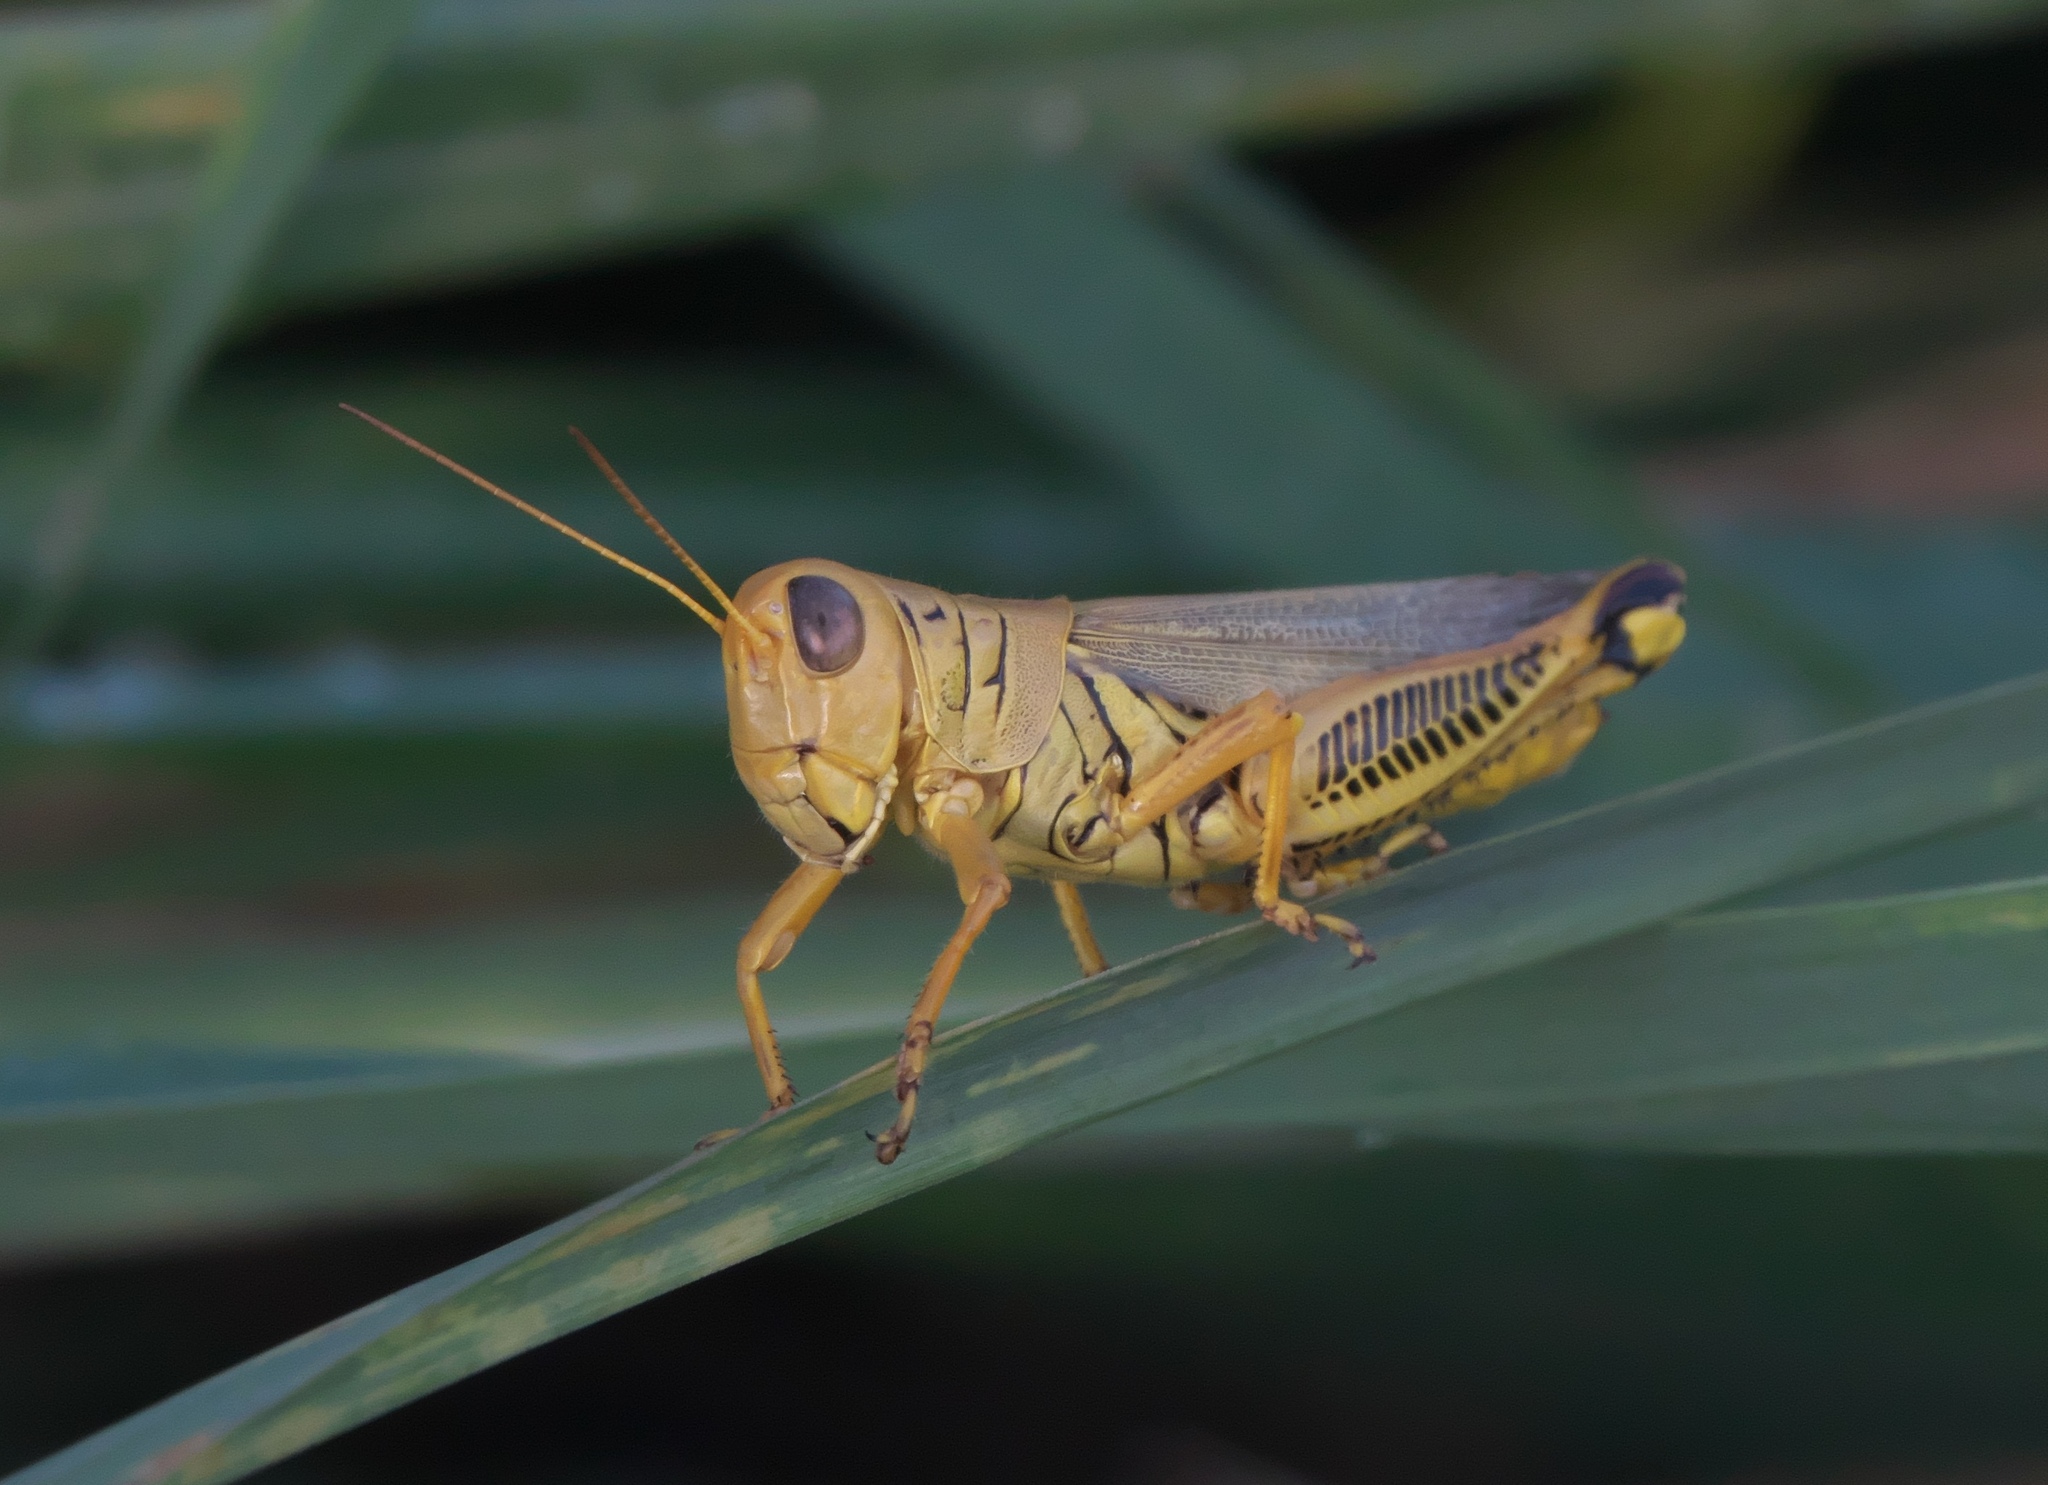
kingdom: Animalia
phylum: Arthropoda
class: Insecta
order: Orthoptera
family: Acrididae
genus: Melanoplus
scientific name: Melanoplus differentialis
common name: Differential grasshopper
